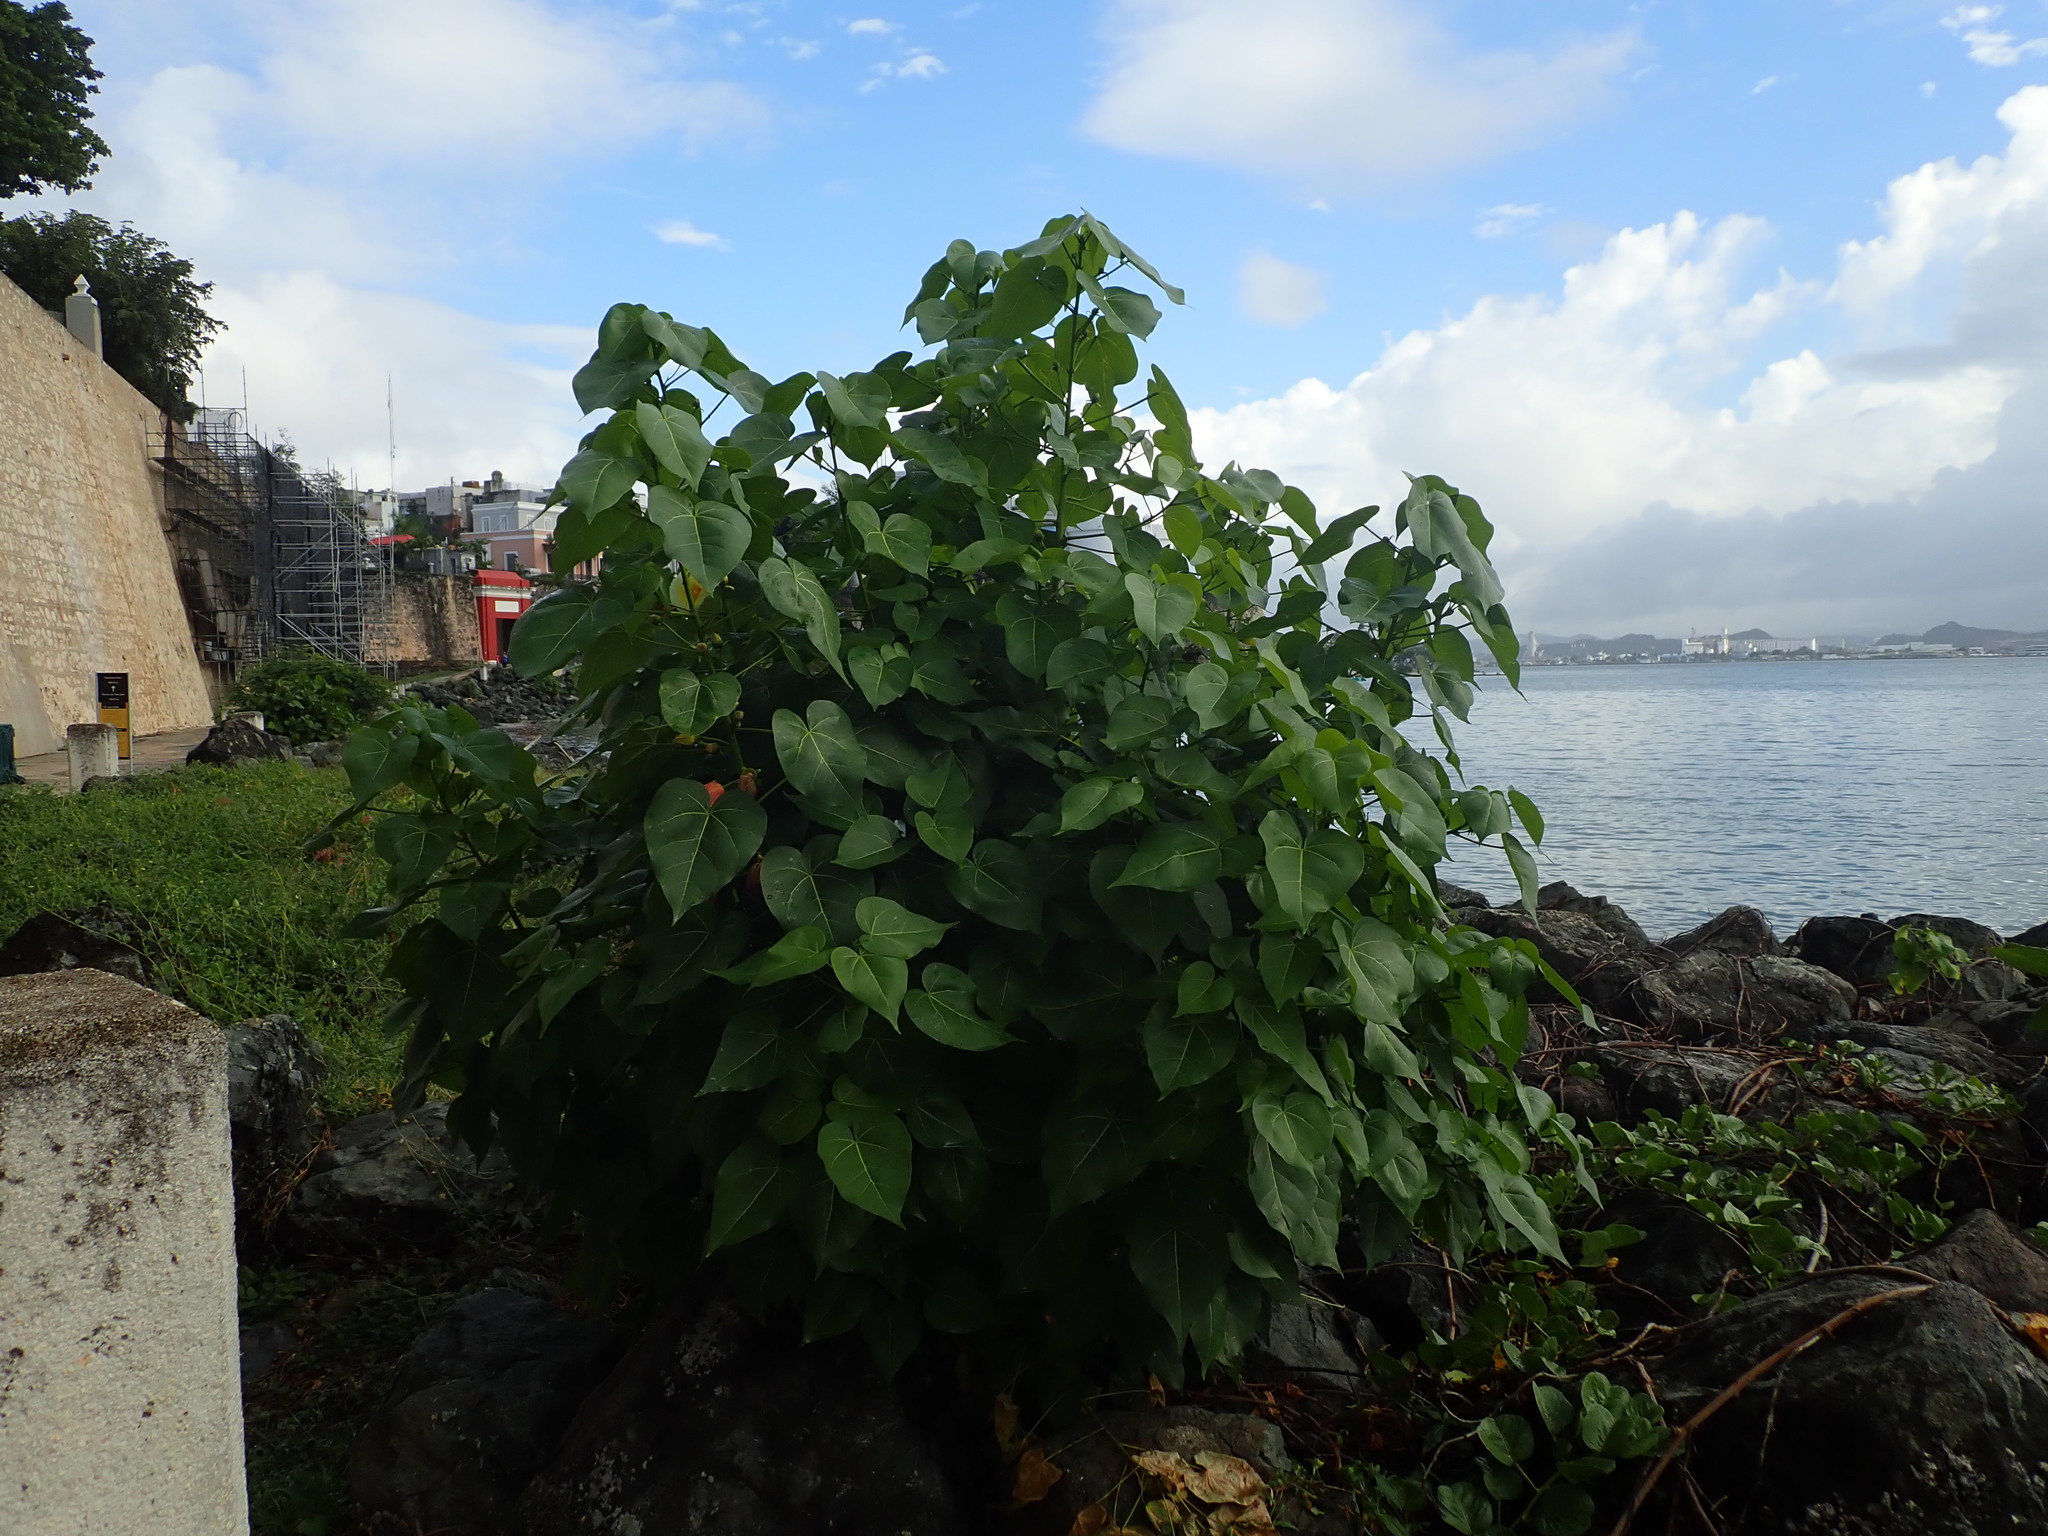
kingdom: Plantae
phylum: Tracheophyta
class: Magnoliopsida
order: Malvales
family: Malvaceae
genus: Thespesia
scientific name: Thespesia populnea
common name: Seaside mahoe
